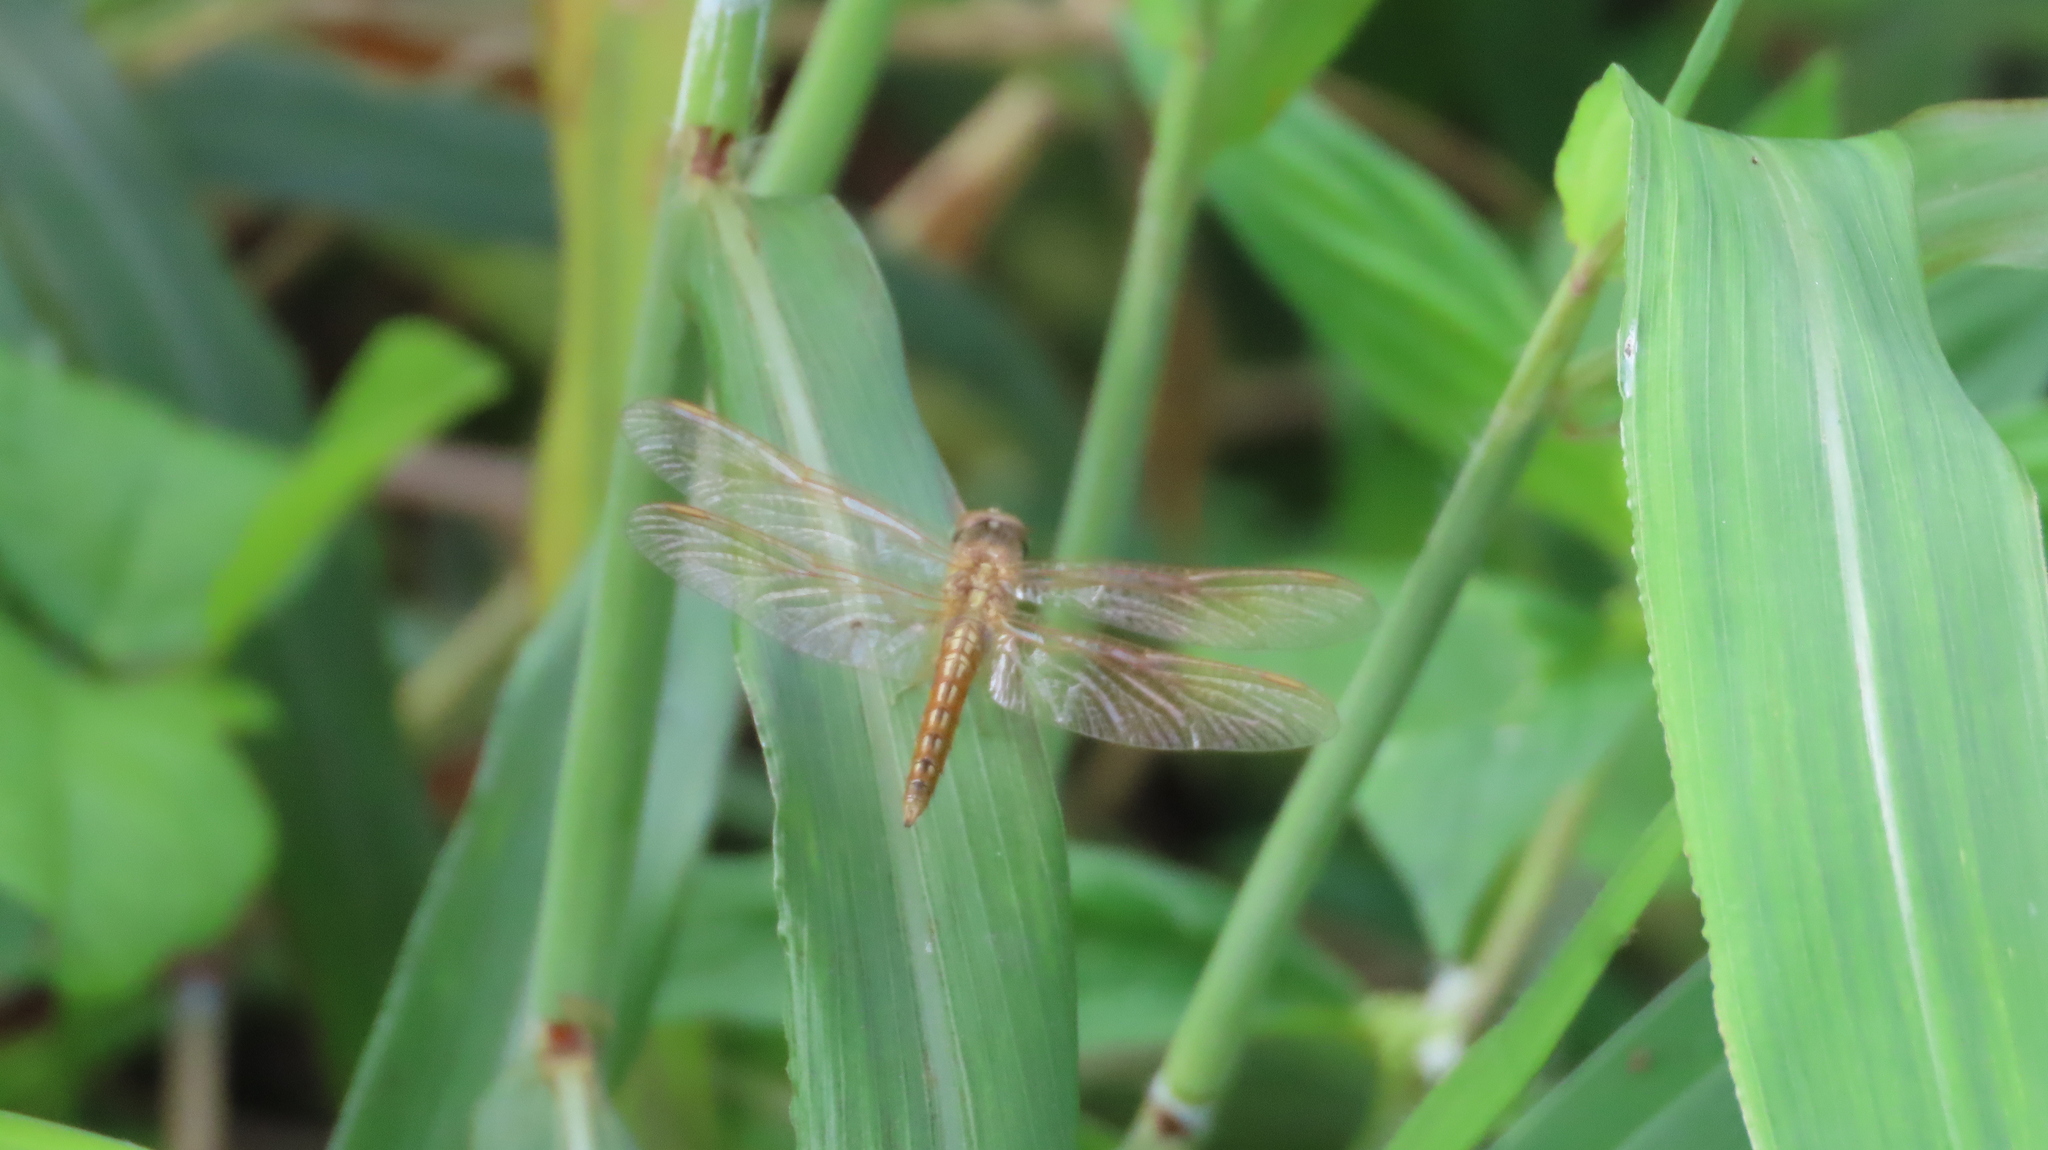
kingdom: Animalia
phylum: Arthropoda
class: Insecta
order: Odonata
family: Libellulidae
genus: Brachythemis
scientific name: Brachythemis contaminata
